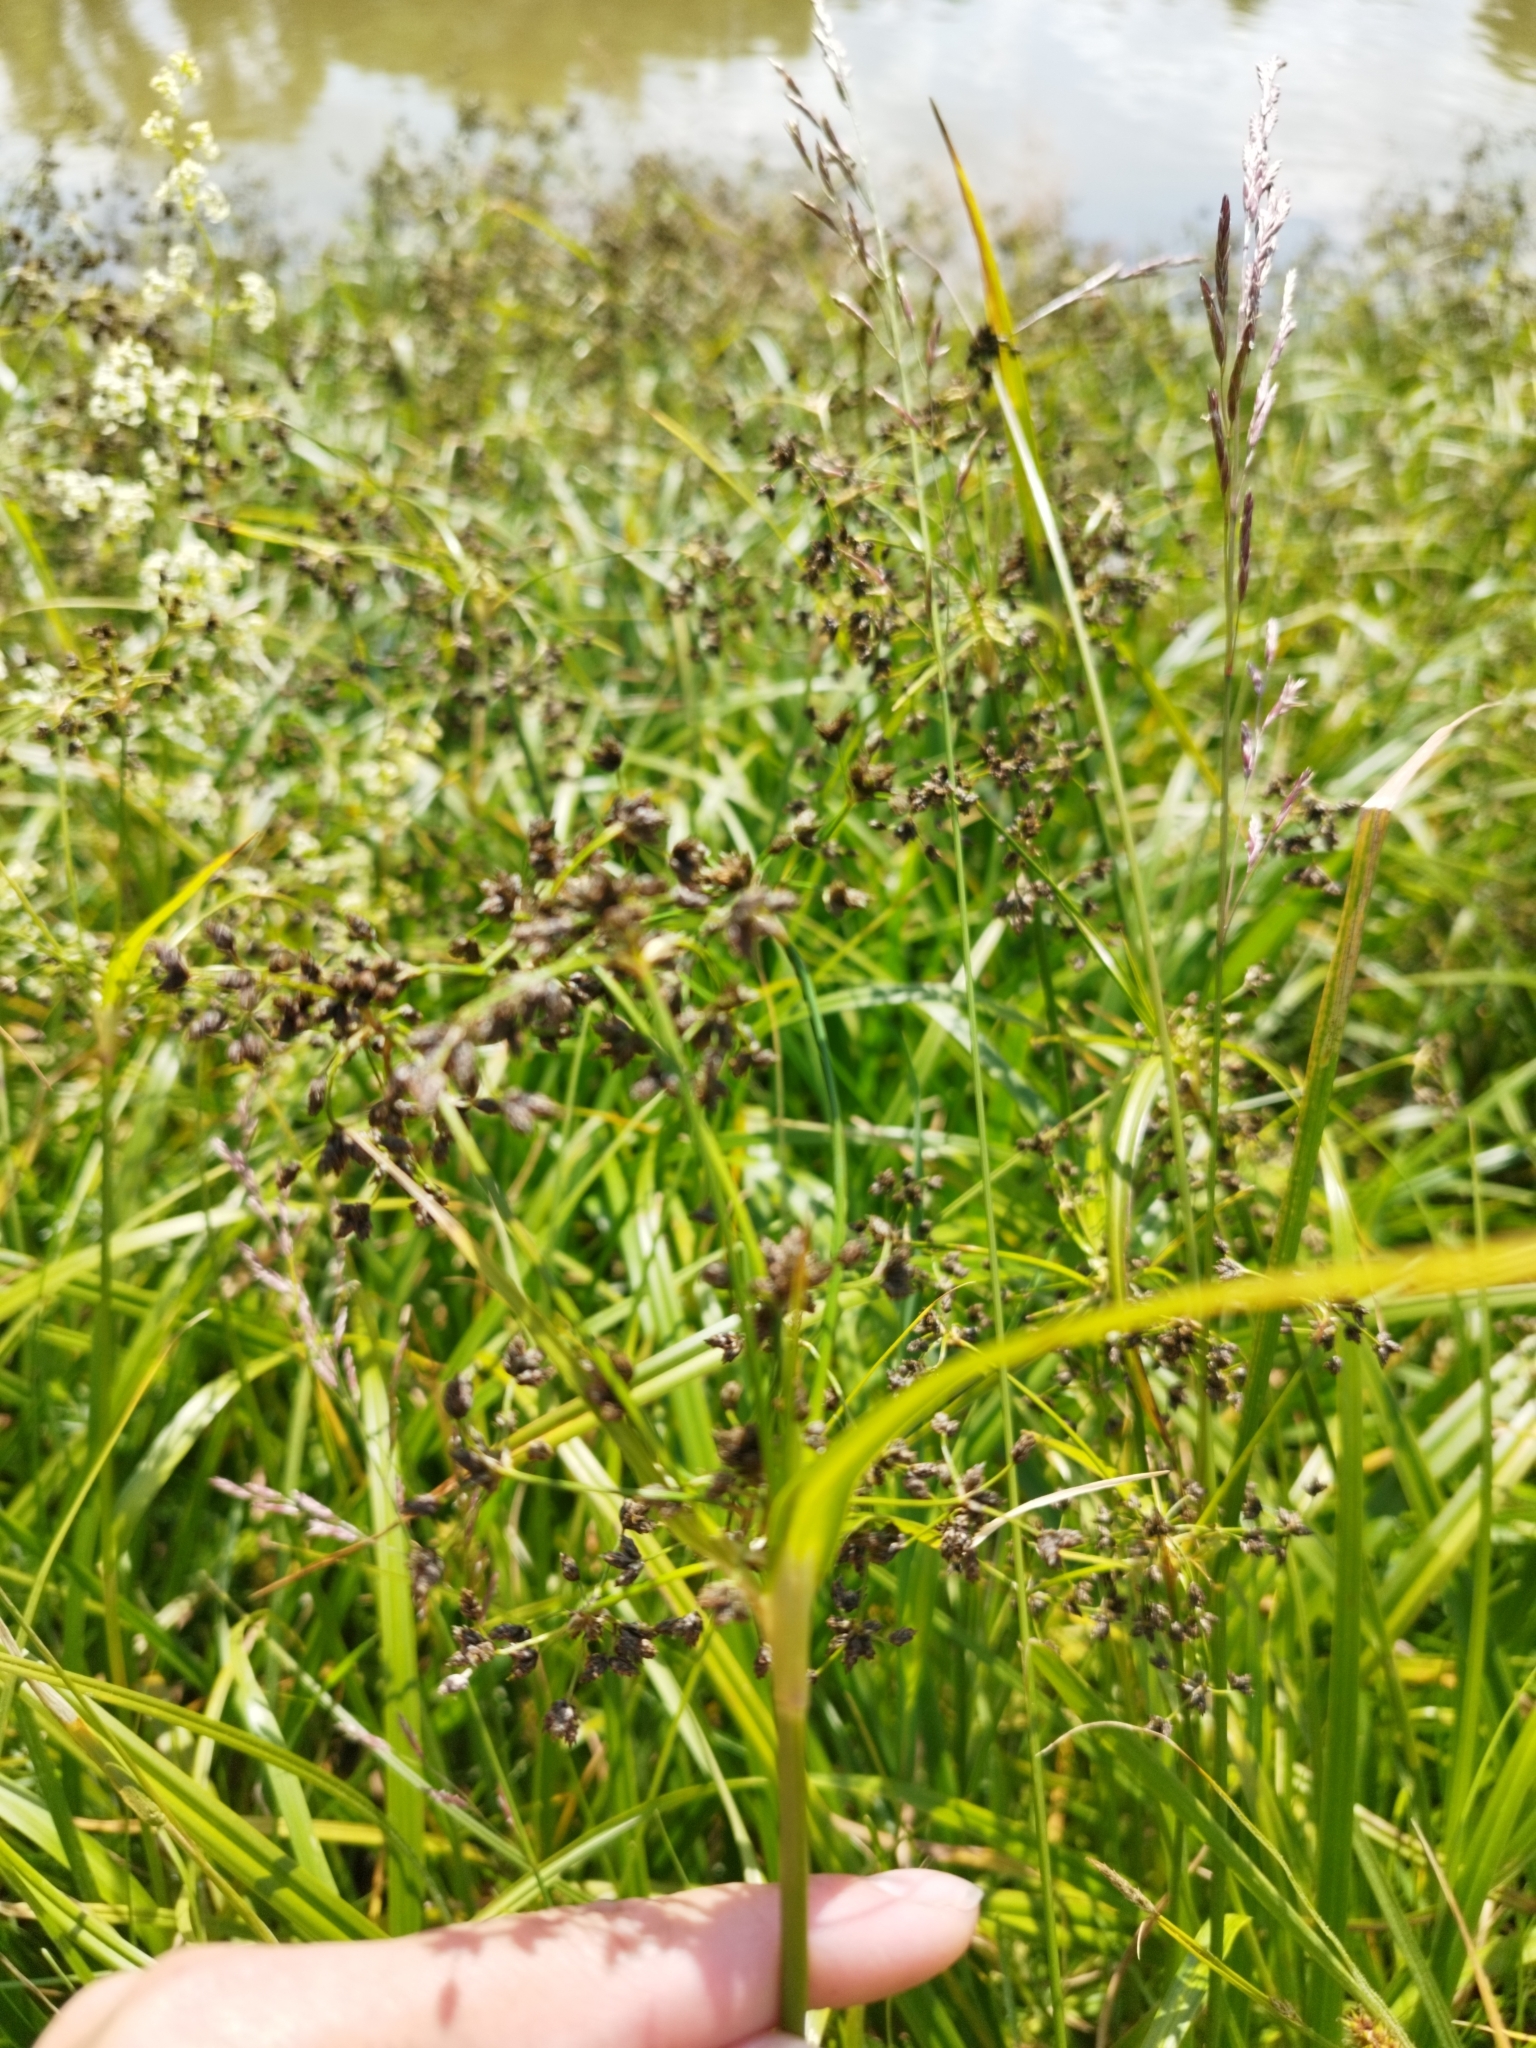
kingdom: Plantae
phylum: Tracheophyta
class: Liliopsida
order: Poales
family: Cyperaceae
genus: Scirpus
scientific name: Scirpus sylvaticus
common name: Wood club-rush
